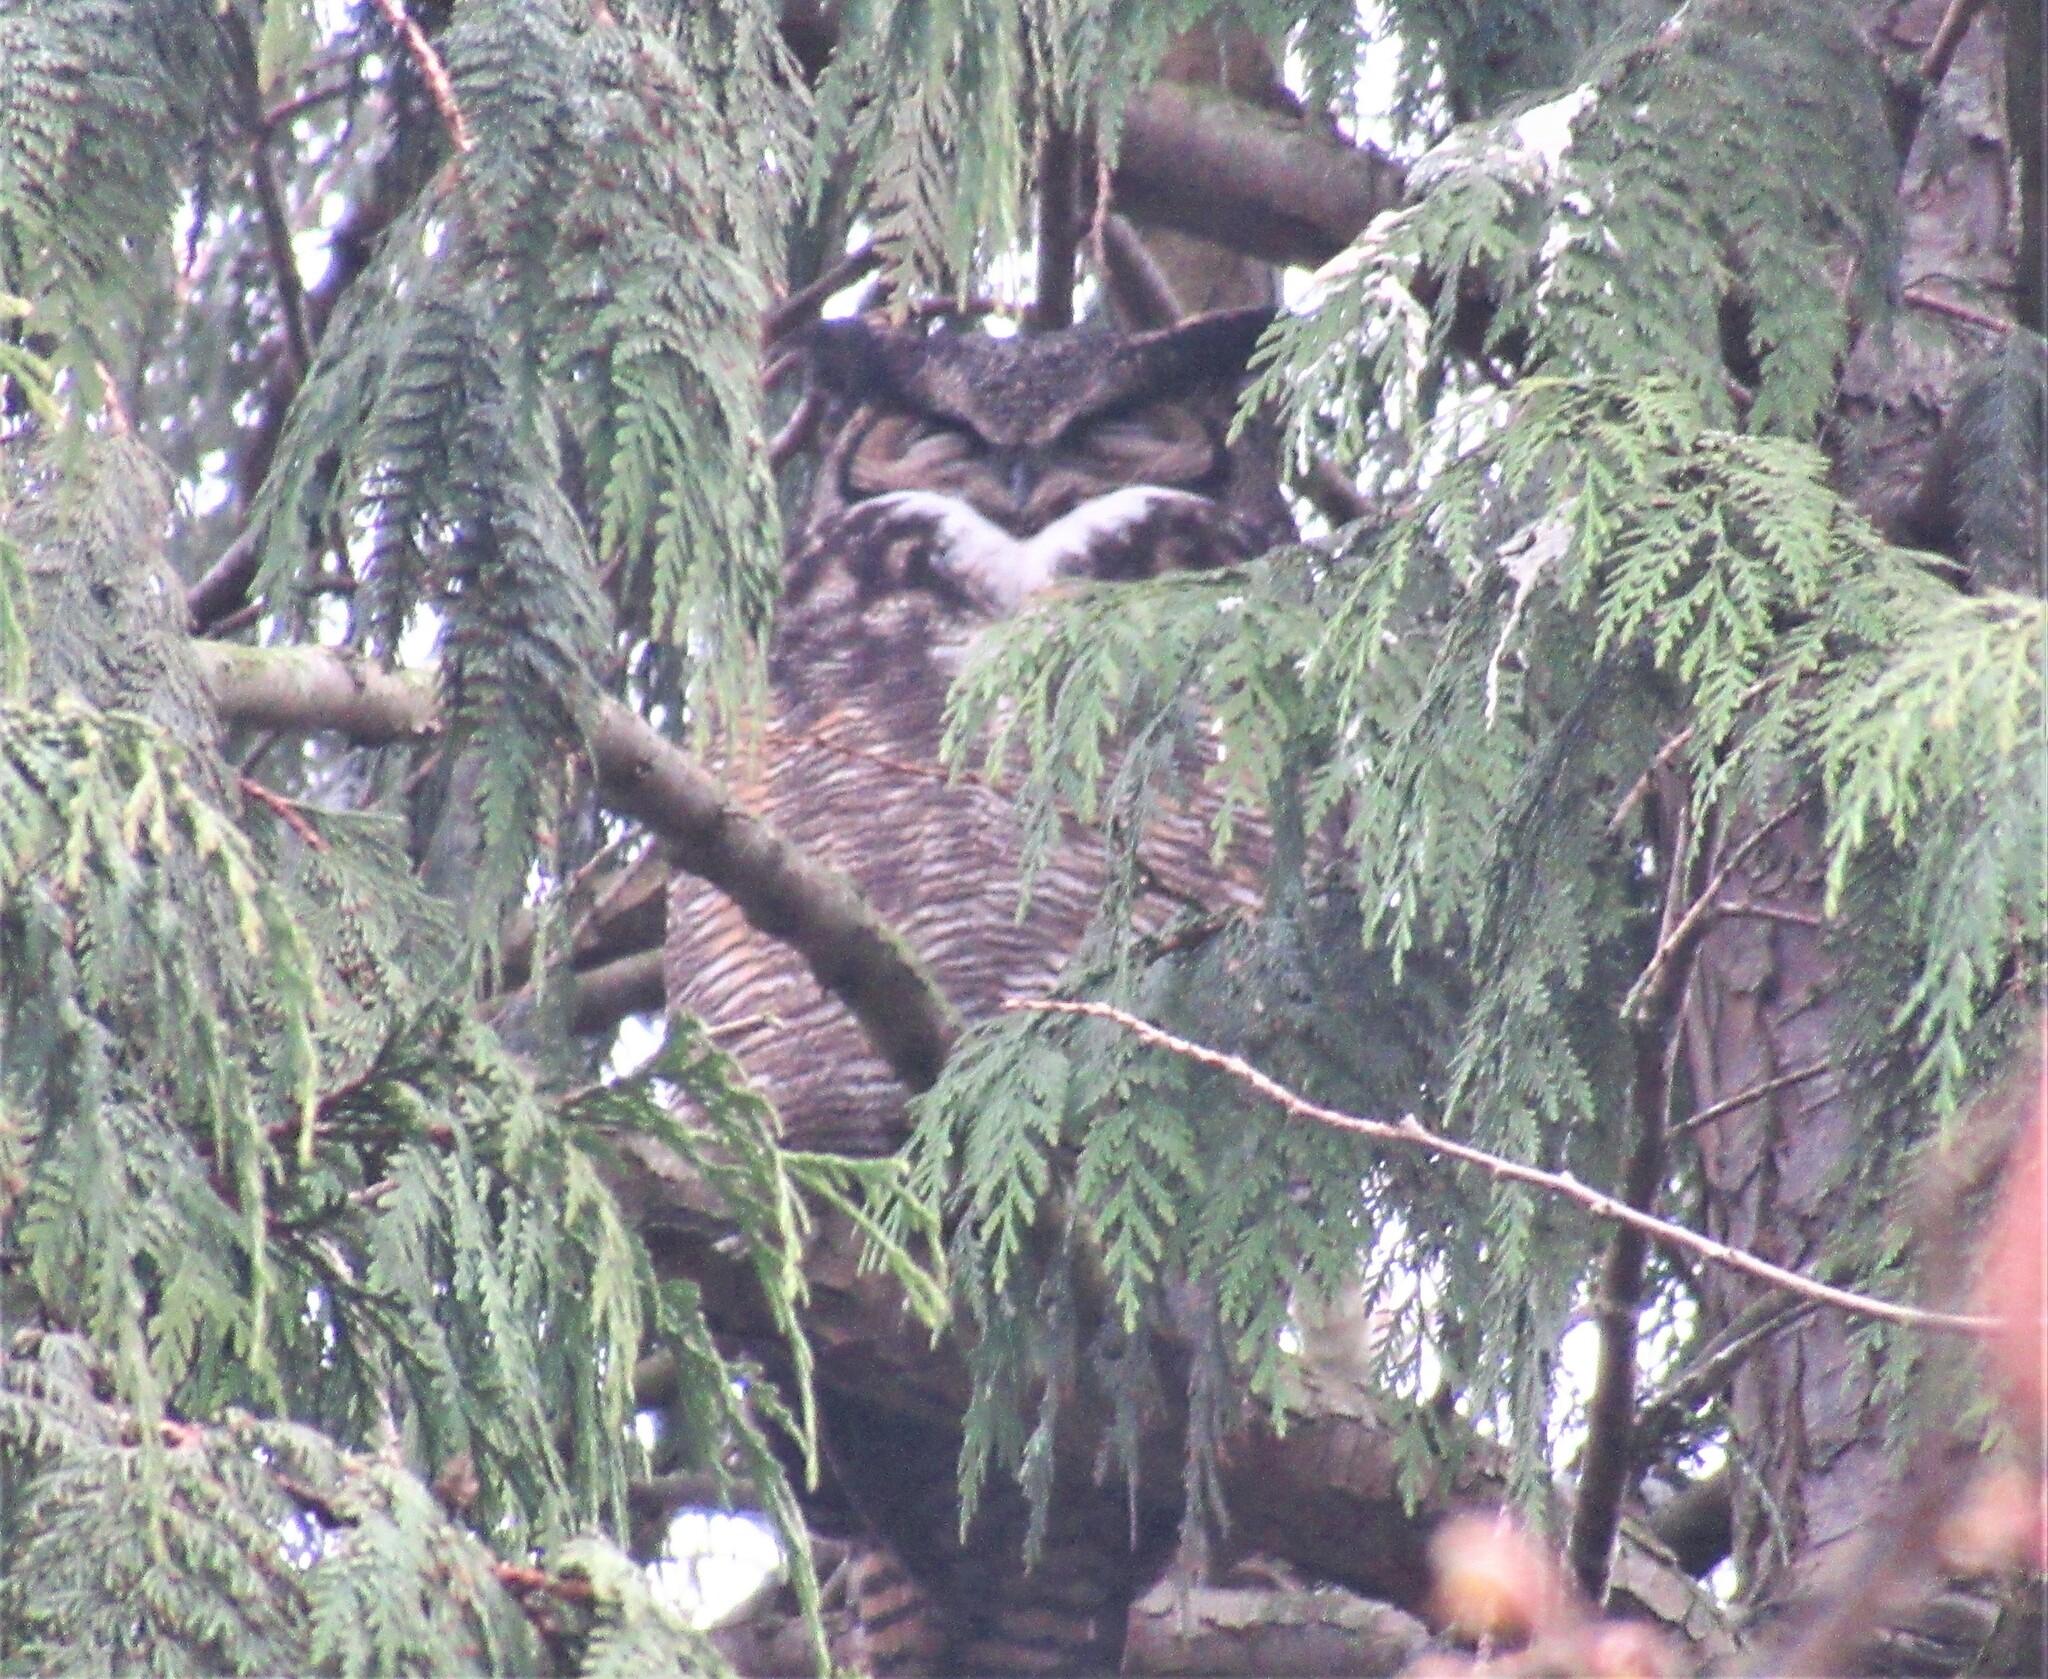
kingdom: Animalia
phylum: Chordata
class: Aves
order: Strigiformes
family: Strigidae
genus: Bubo
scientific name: Bubo virginianus
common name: Great horned owl
